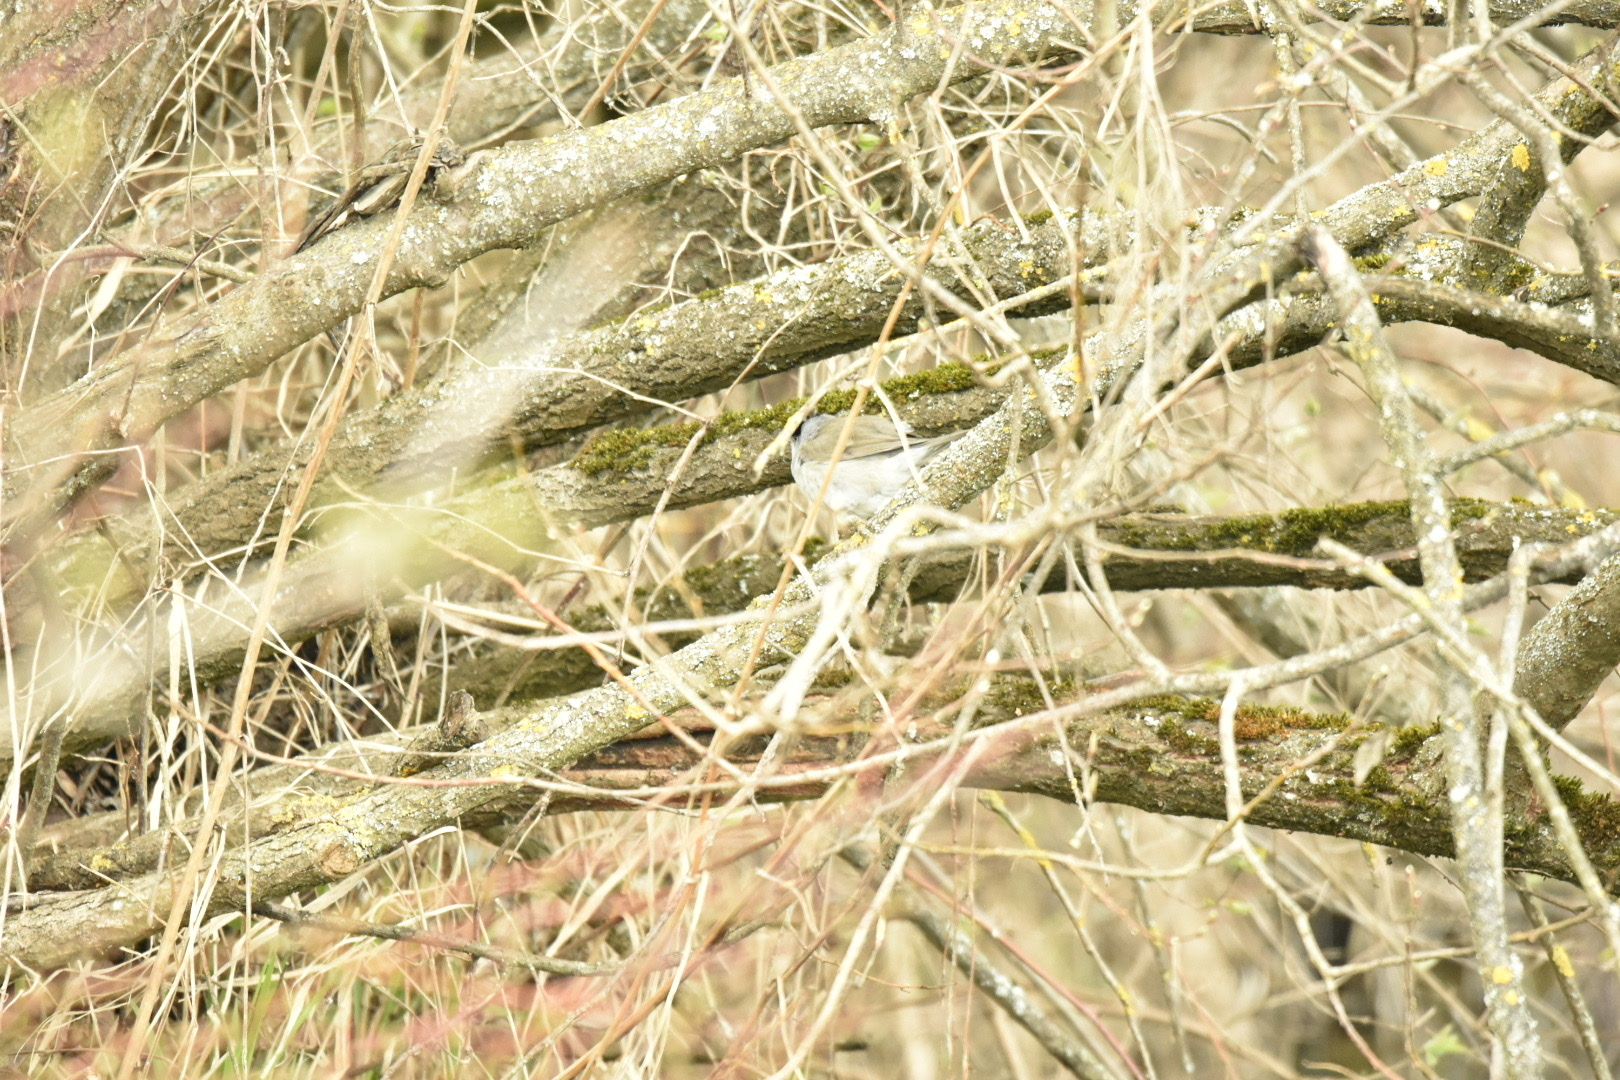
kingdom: Animalia
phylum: Chordata
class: Aves
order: Passeriformes
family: Sylviidae
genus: Sylvia
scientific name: Sylvia atricapilla
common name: Eurasian blackcap
